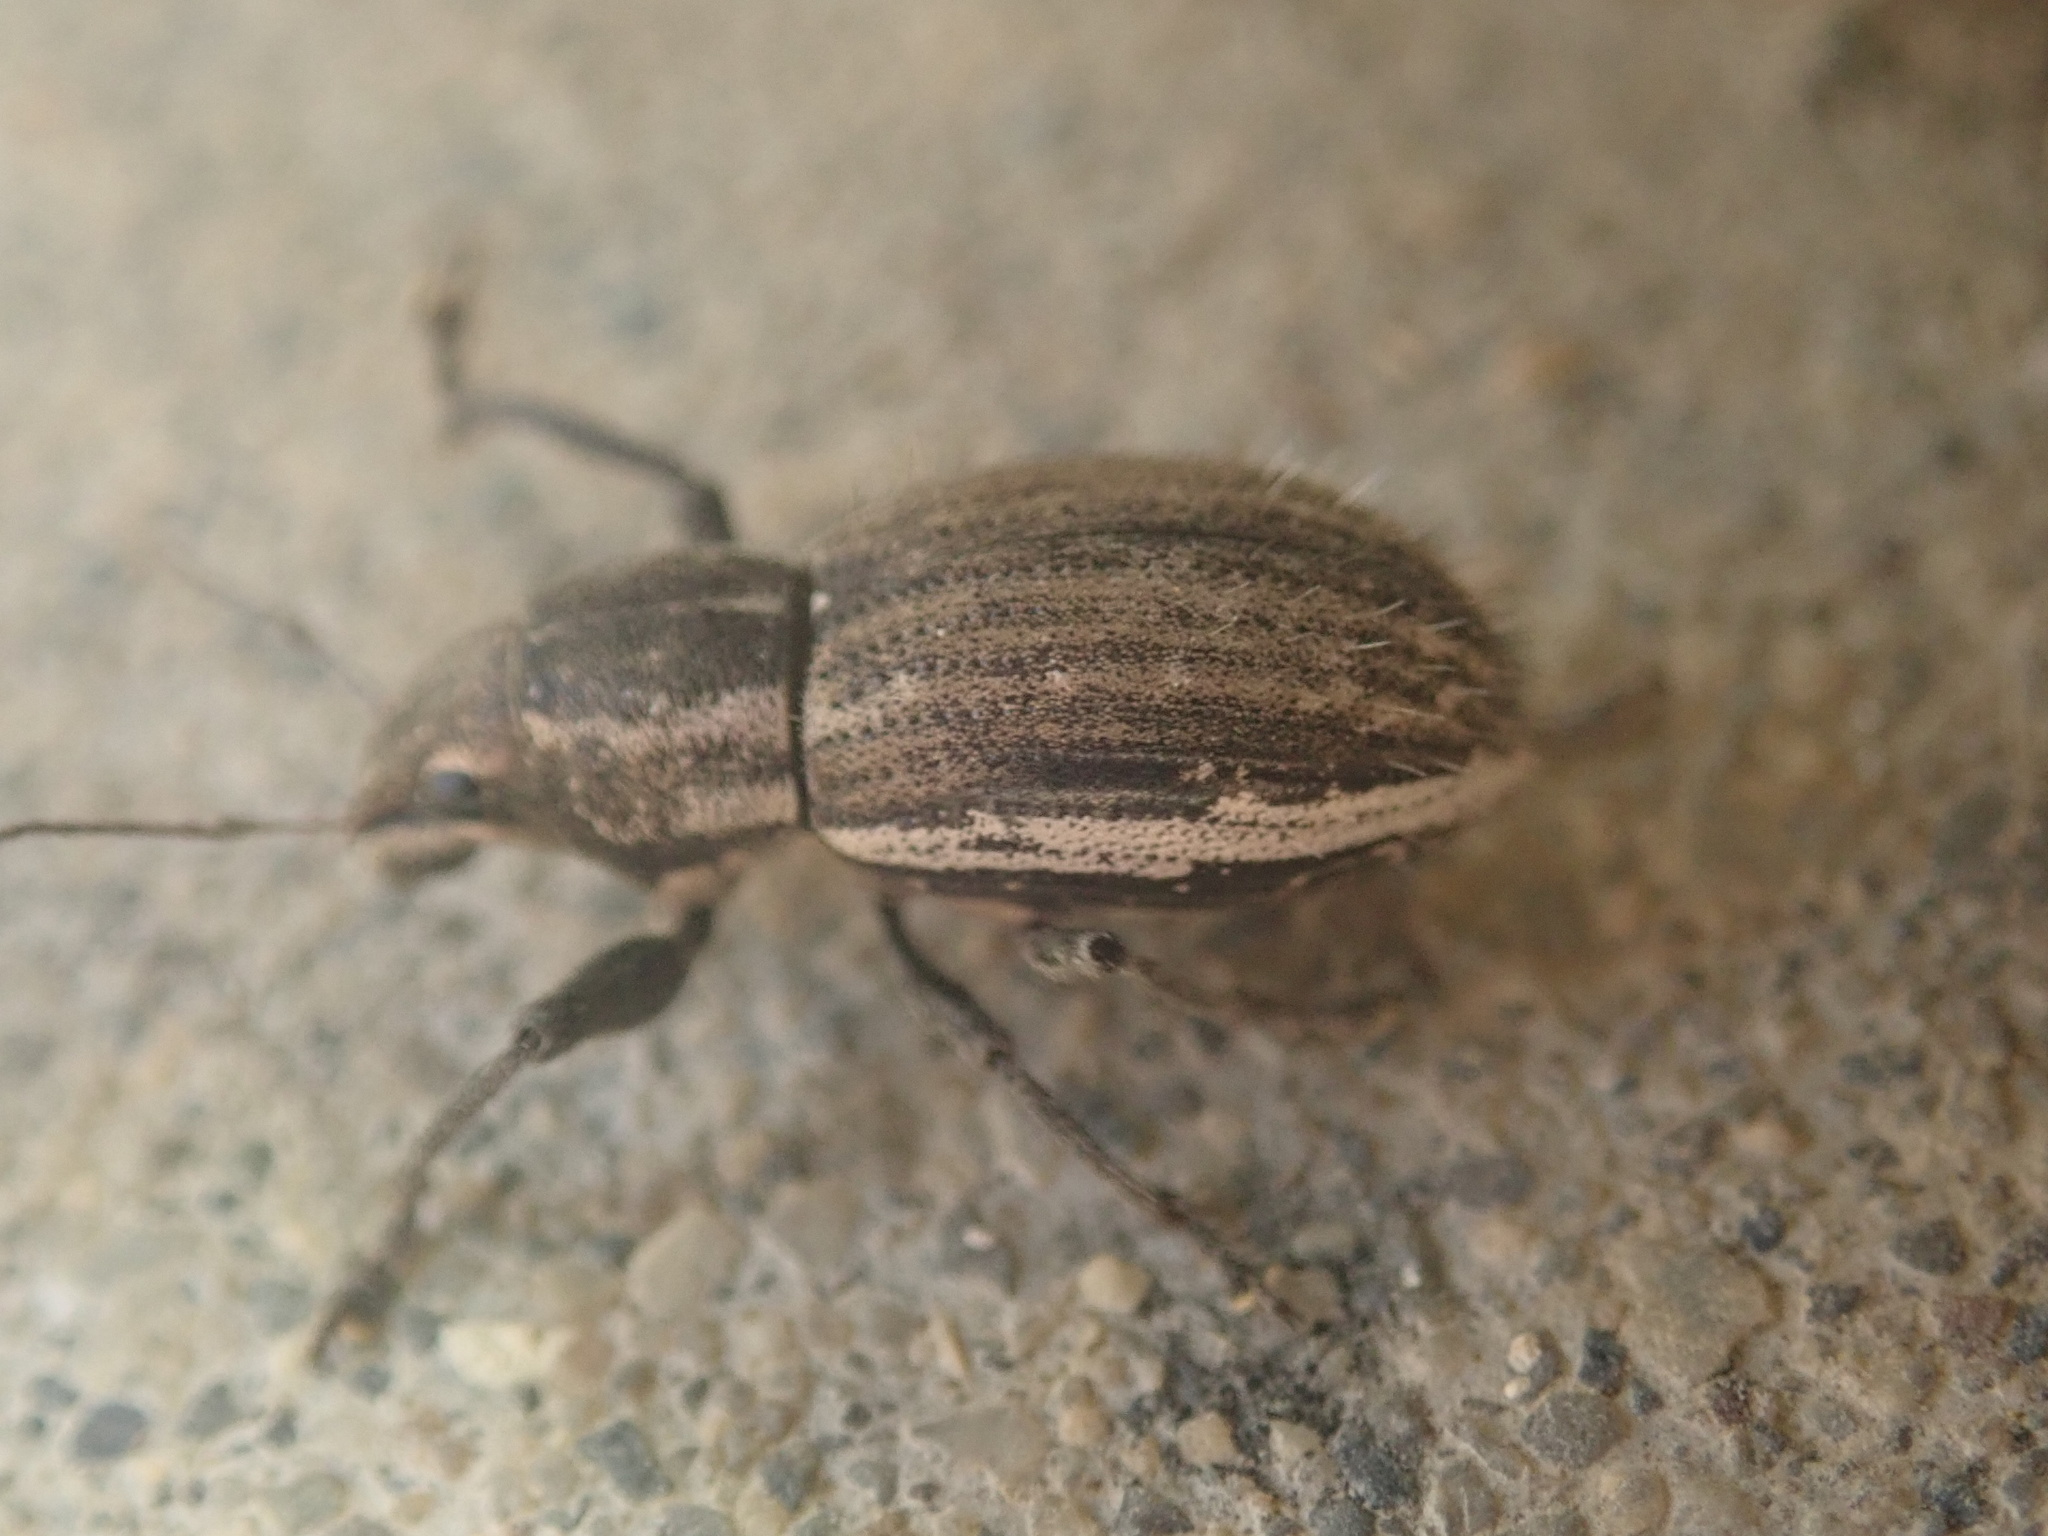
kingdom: Animalia
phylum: Arthropoda
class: Insecta
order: Coleoptera
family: Curculionidae
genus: Naupactus
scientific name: Naupactus leucoloma
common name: Whitefringed beetle
